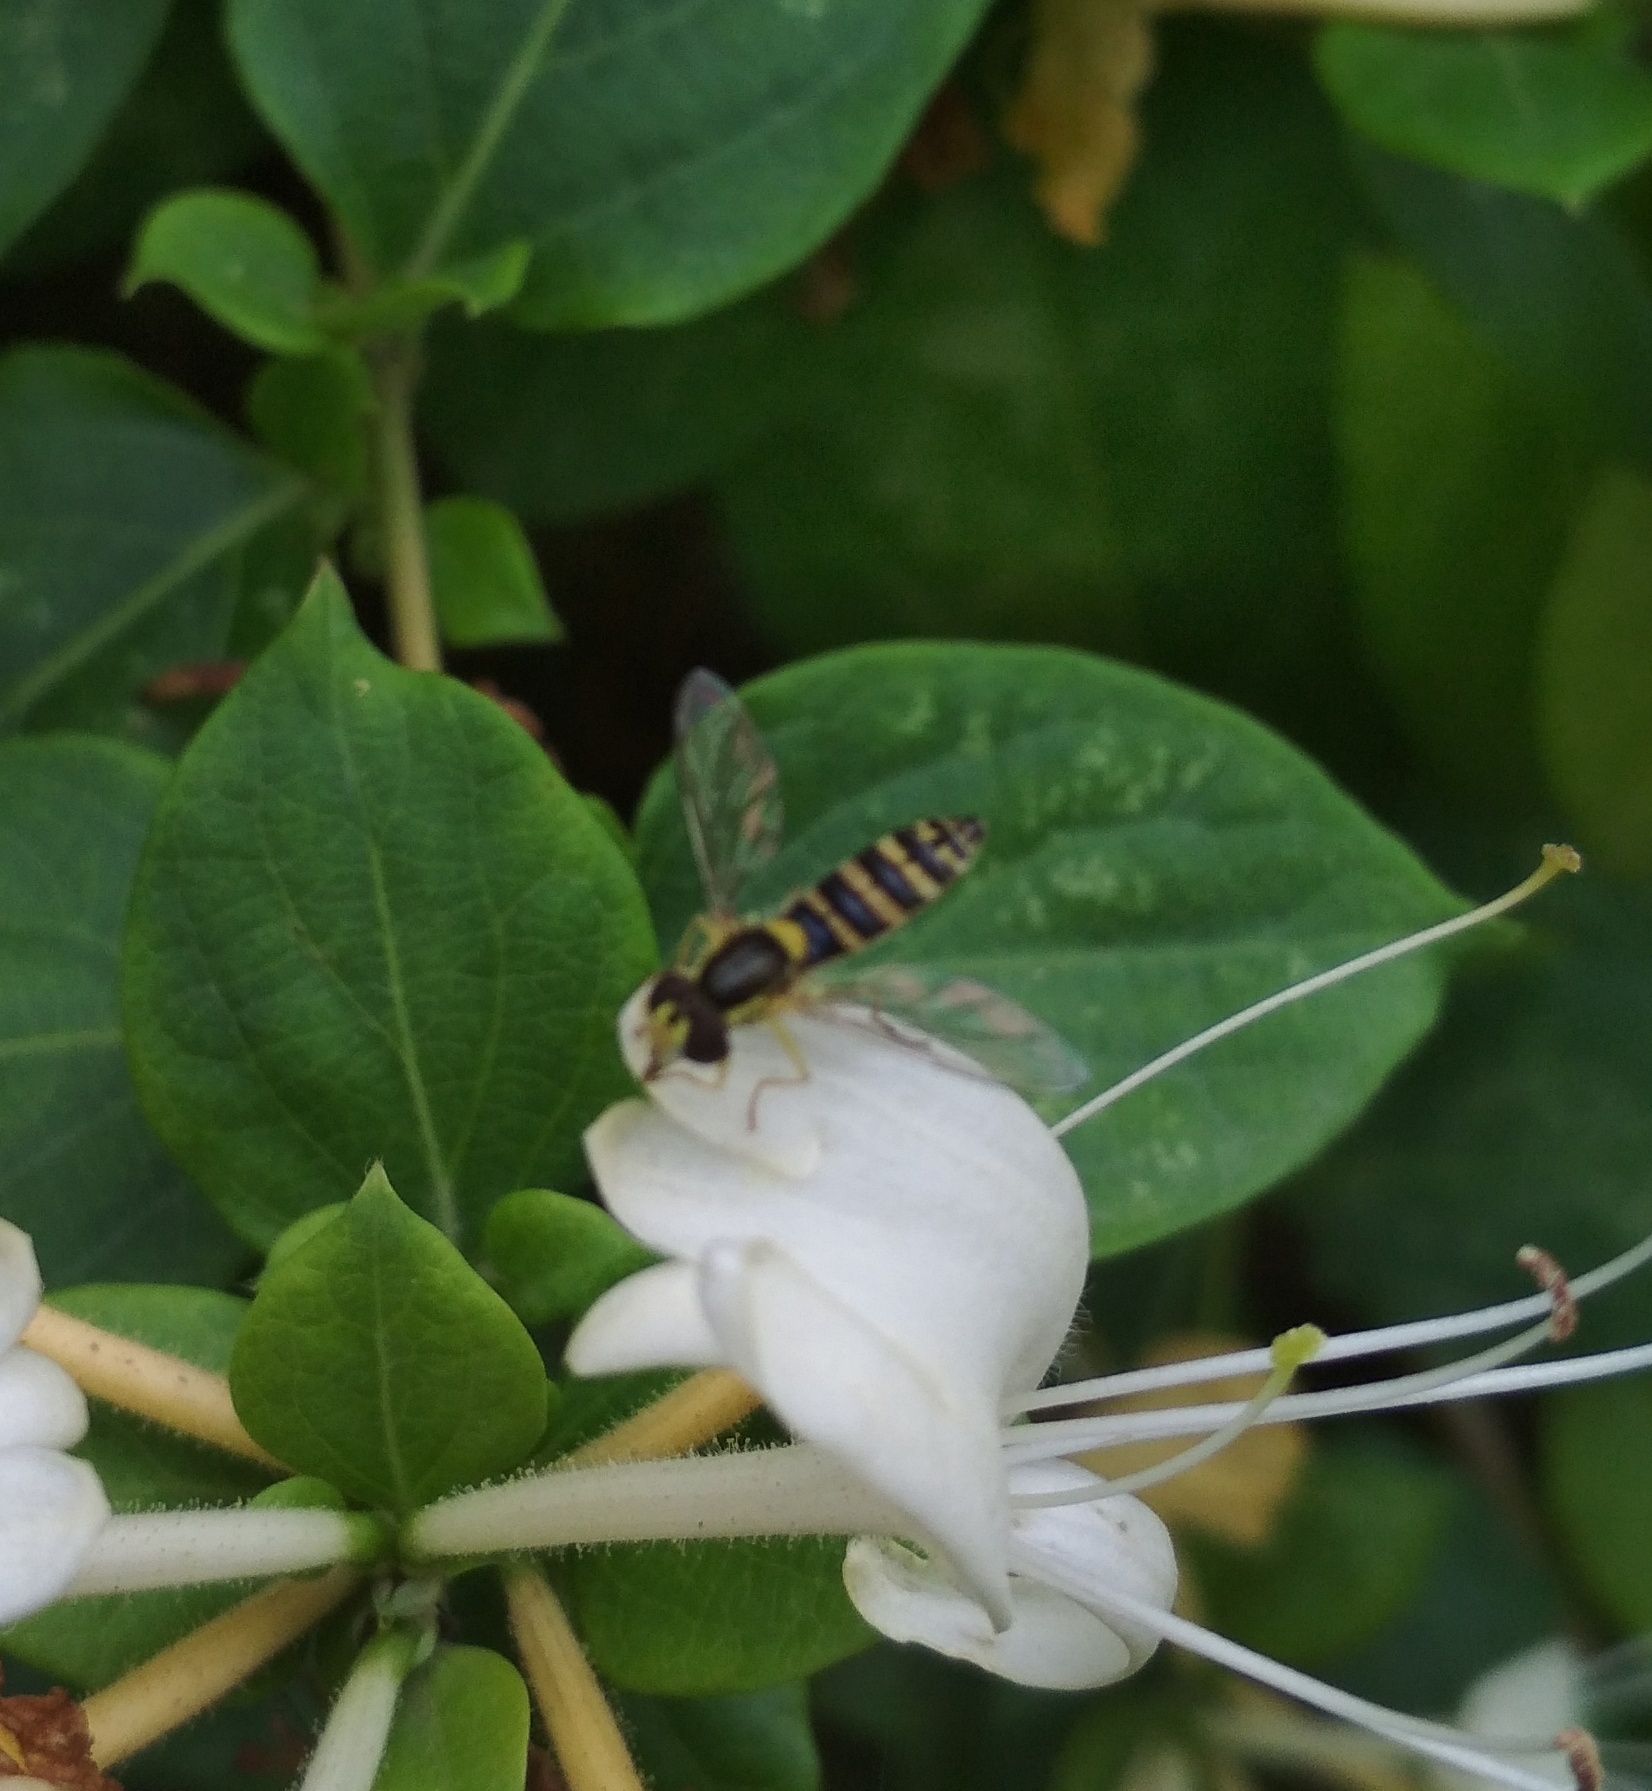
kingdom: Animalia
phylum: Arthropoda
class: Insecta
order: Diptera
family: Syrphidae
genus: Sphaerophoria
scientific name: Sphaerophoria
